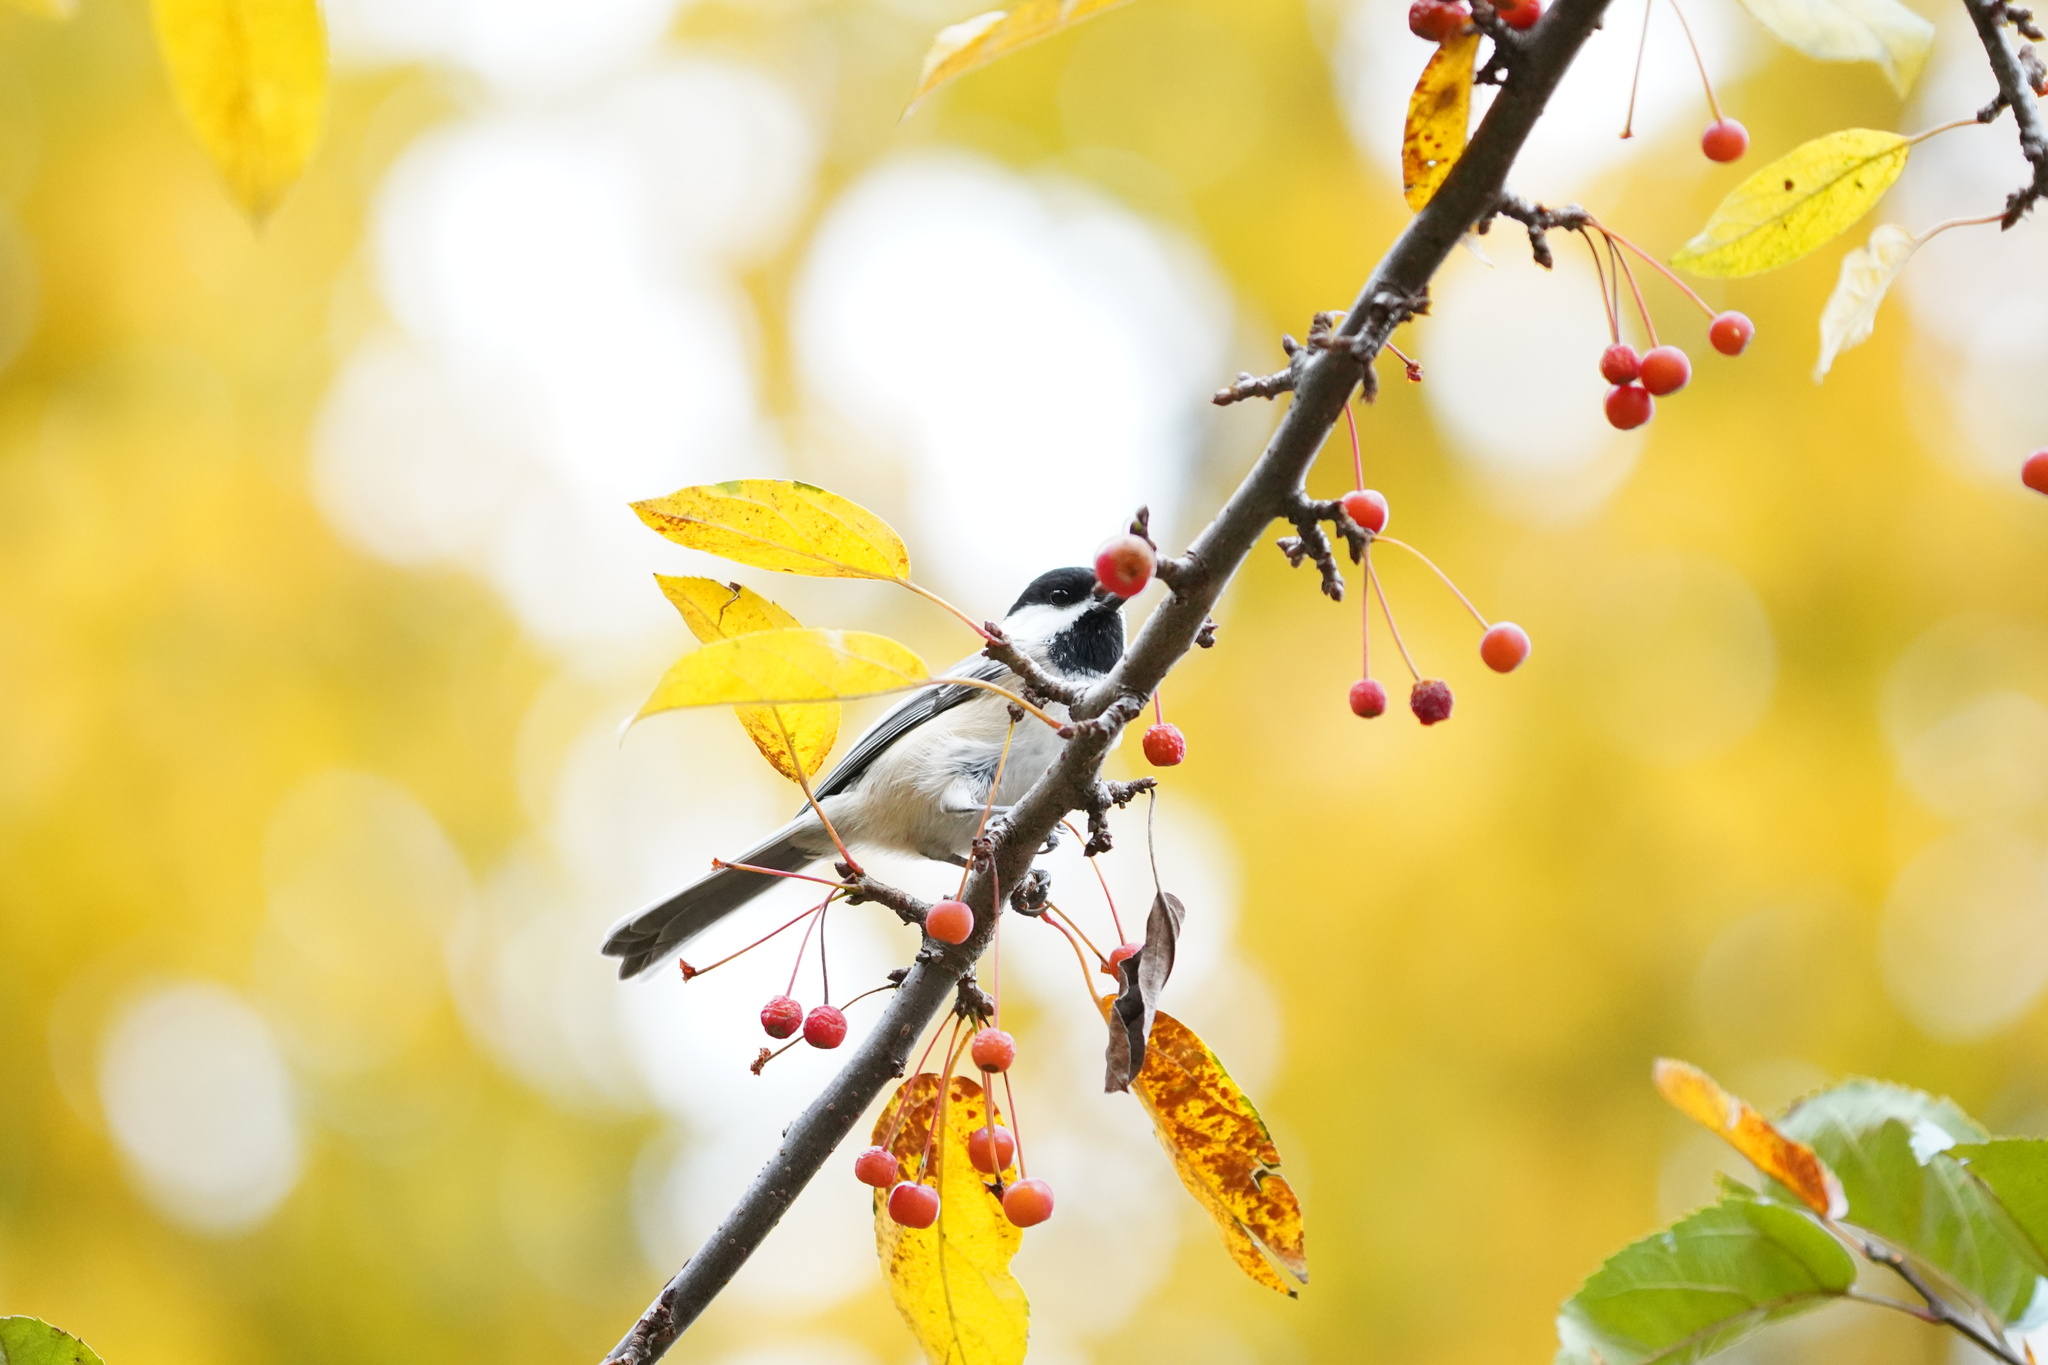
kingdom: Animalia
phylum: Chordata
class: Aves
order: Passeriformes
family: Paridae
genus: Poecile
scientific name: Poecile atricapillus
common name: Black-capped chickadee
